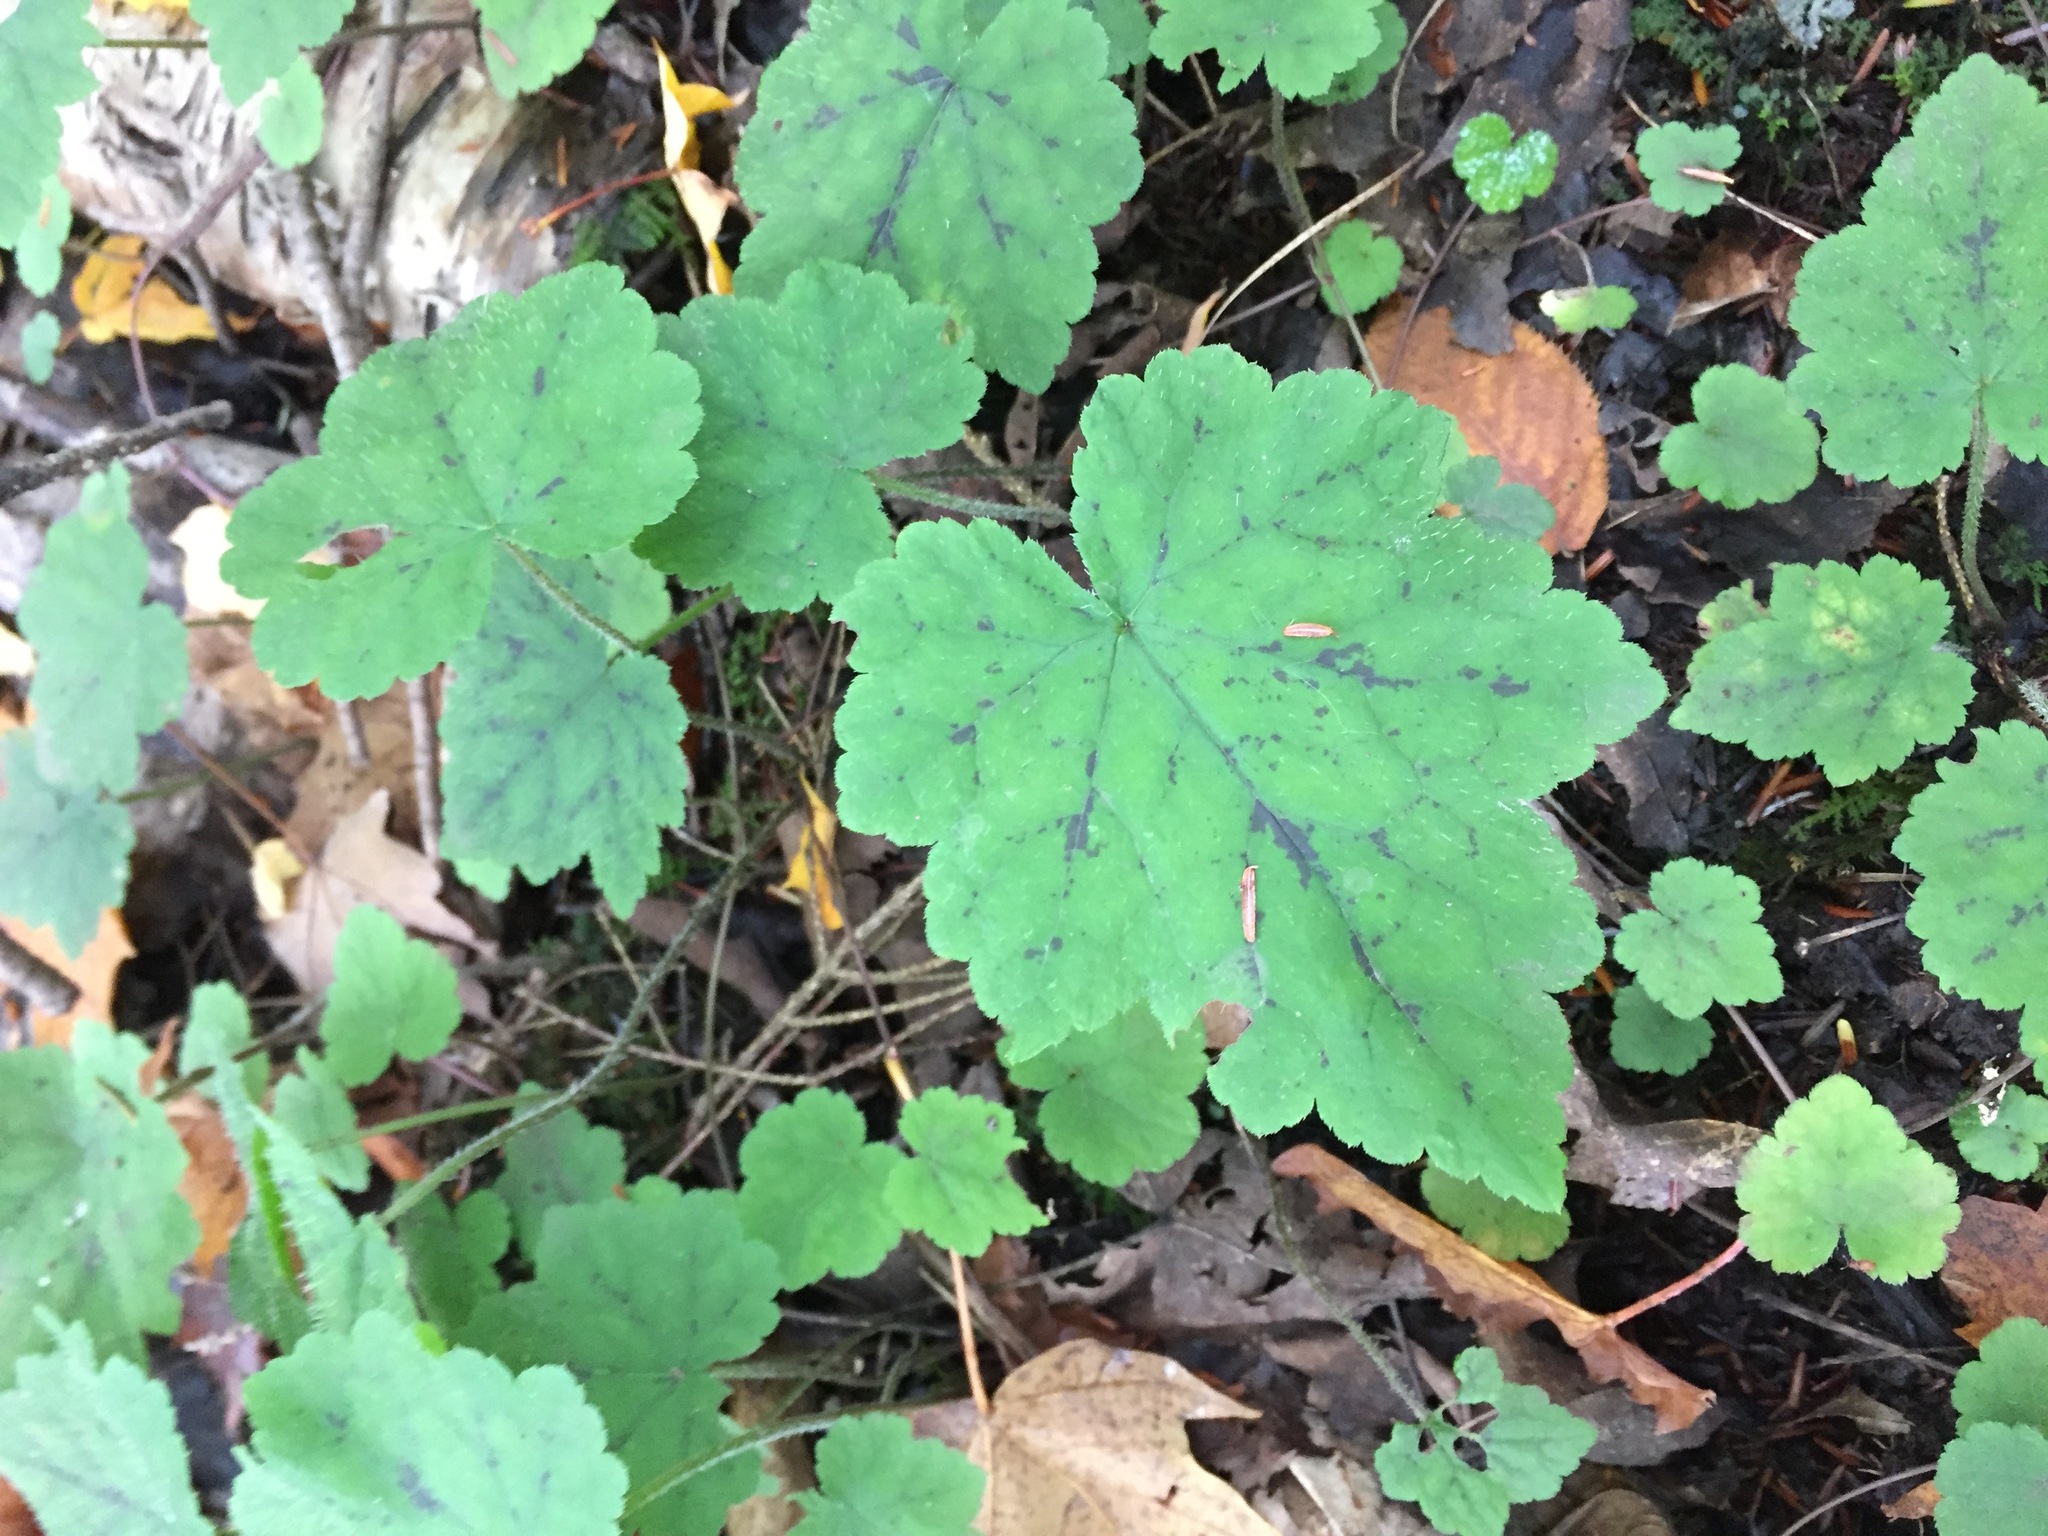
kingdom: Plantae
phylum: Tracheophyta
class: Magnoliopsida
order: Saxifragales
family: Saxifragaceae
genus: Tiarella
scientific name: Tiarella stolonifera
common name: Stoloniferous foamflower
